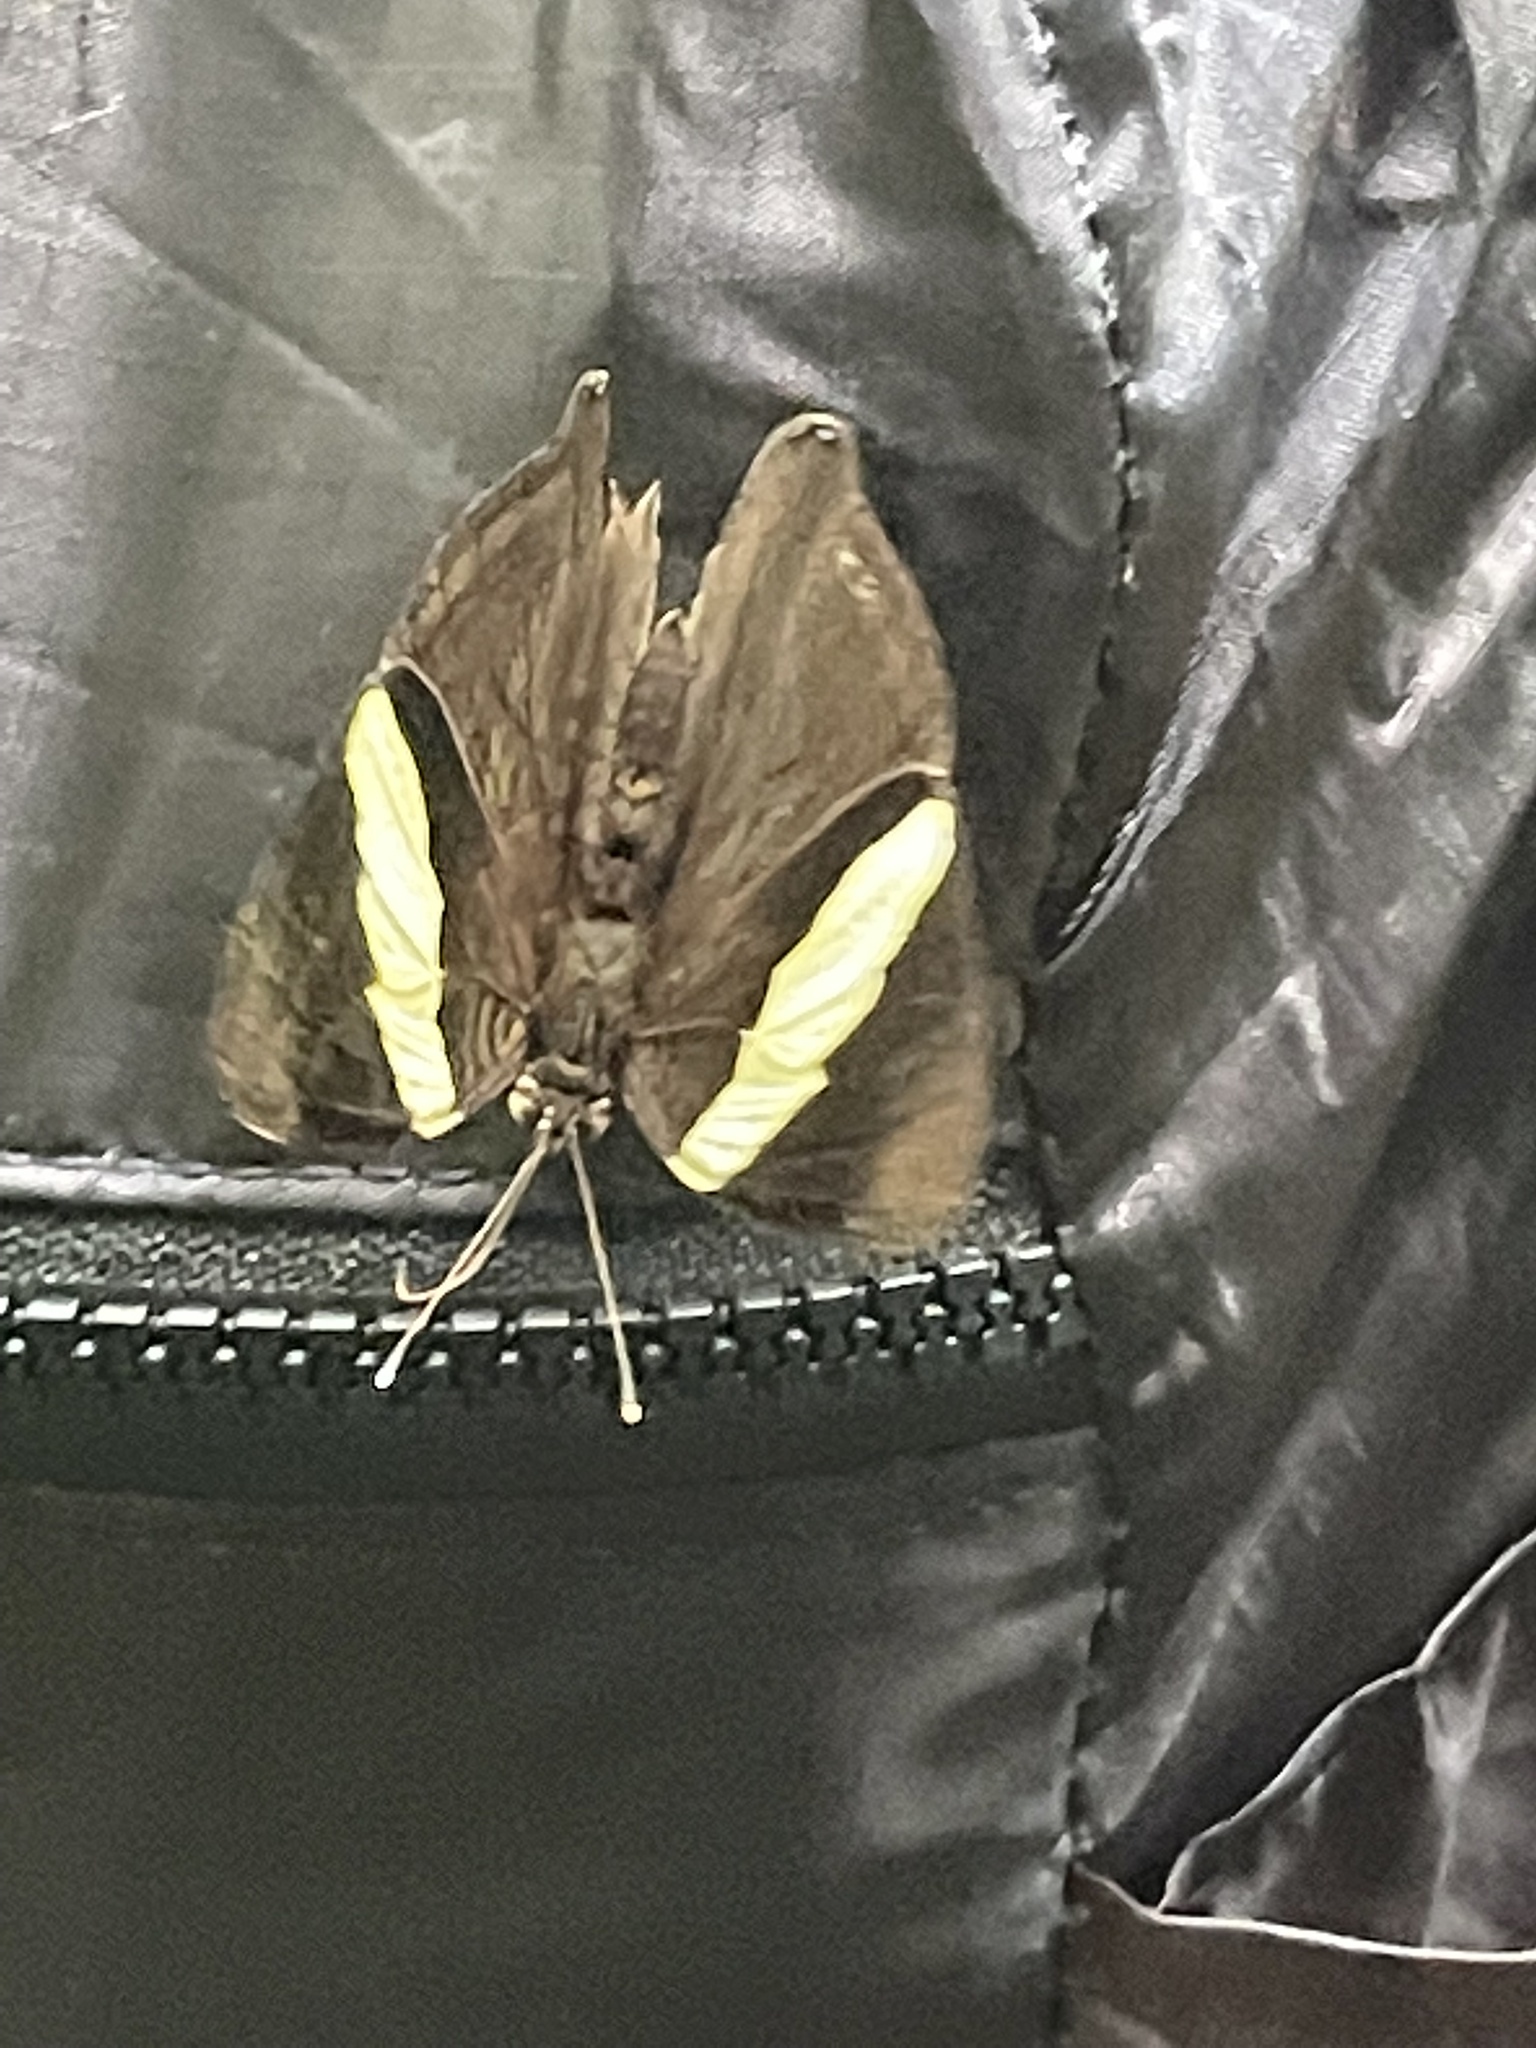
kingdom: Animalia
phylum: Arthropoda
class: Insecta
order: Lepidoptera
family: Nymphalidae
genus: Colobura
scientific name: Colobura dirce
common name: Dirce beauty
